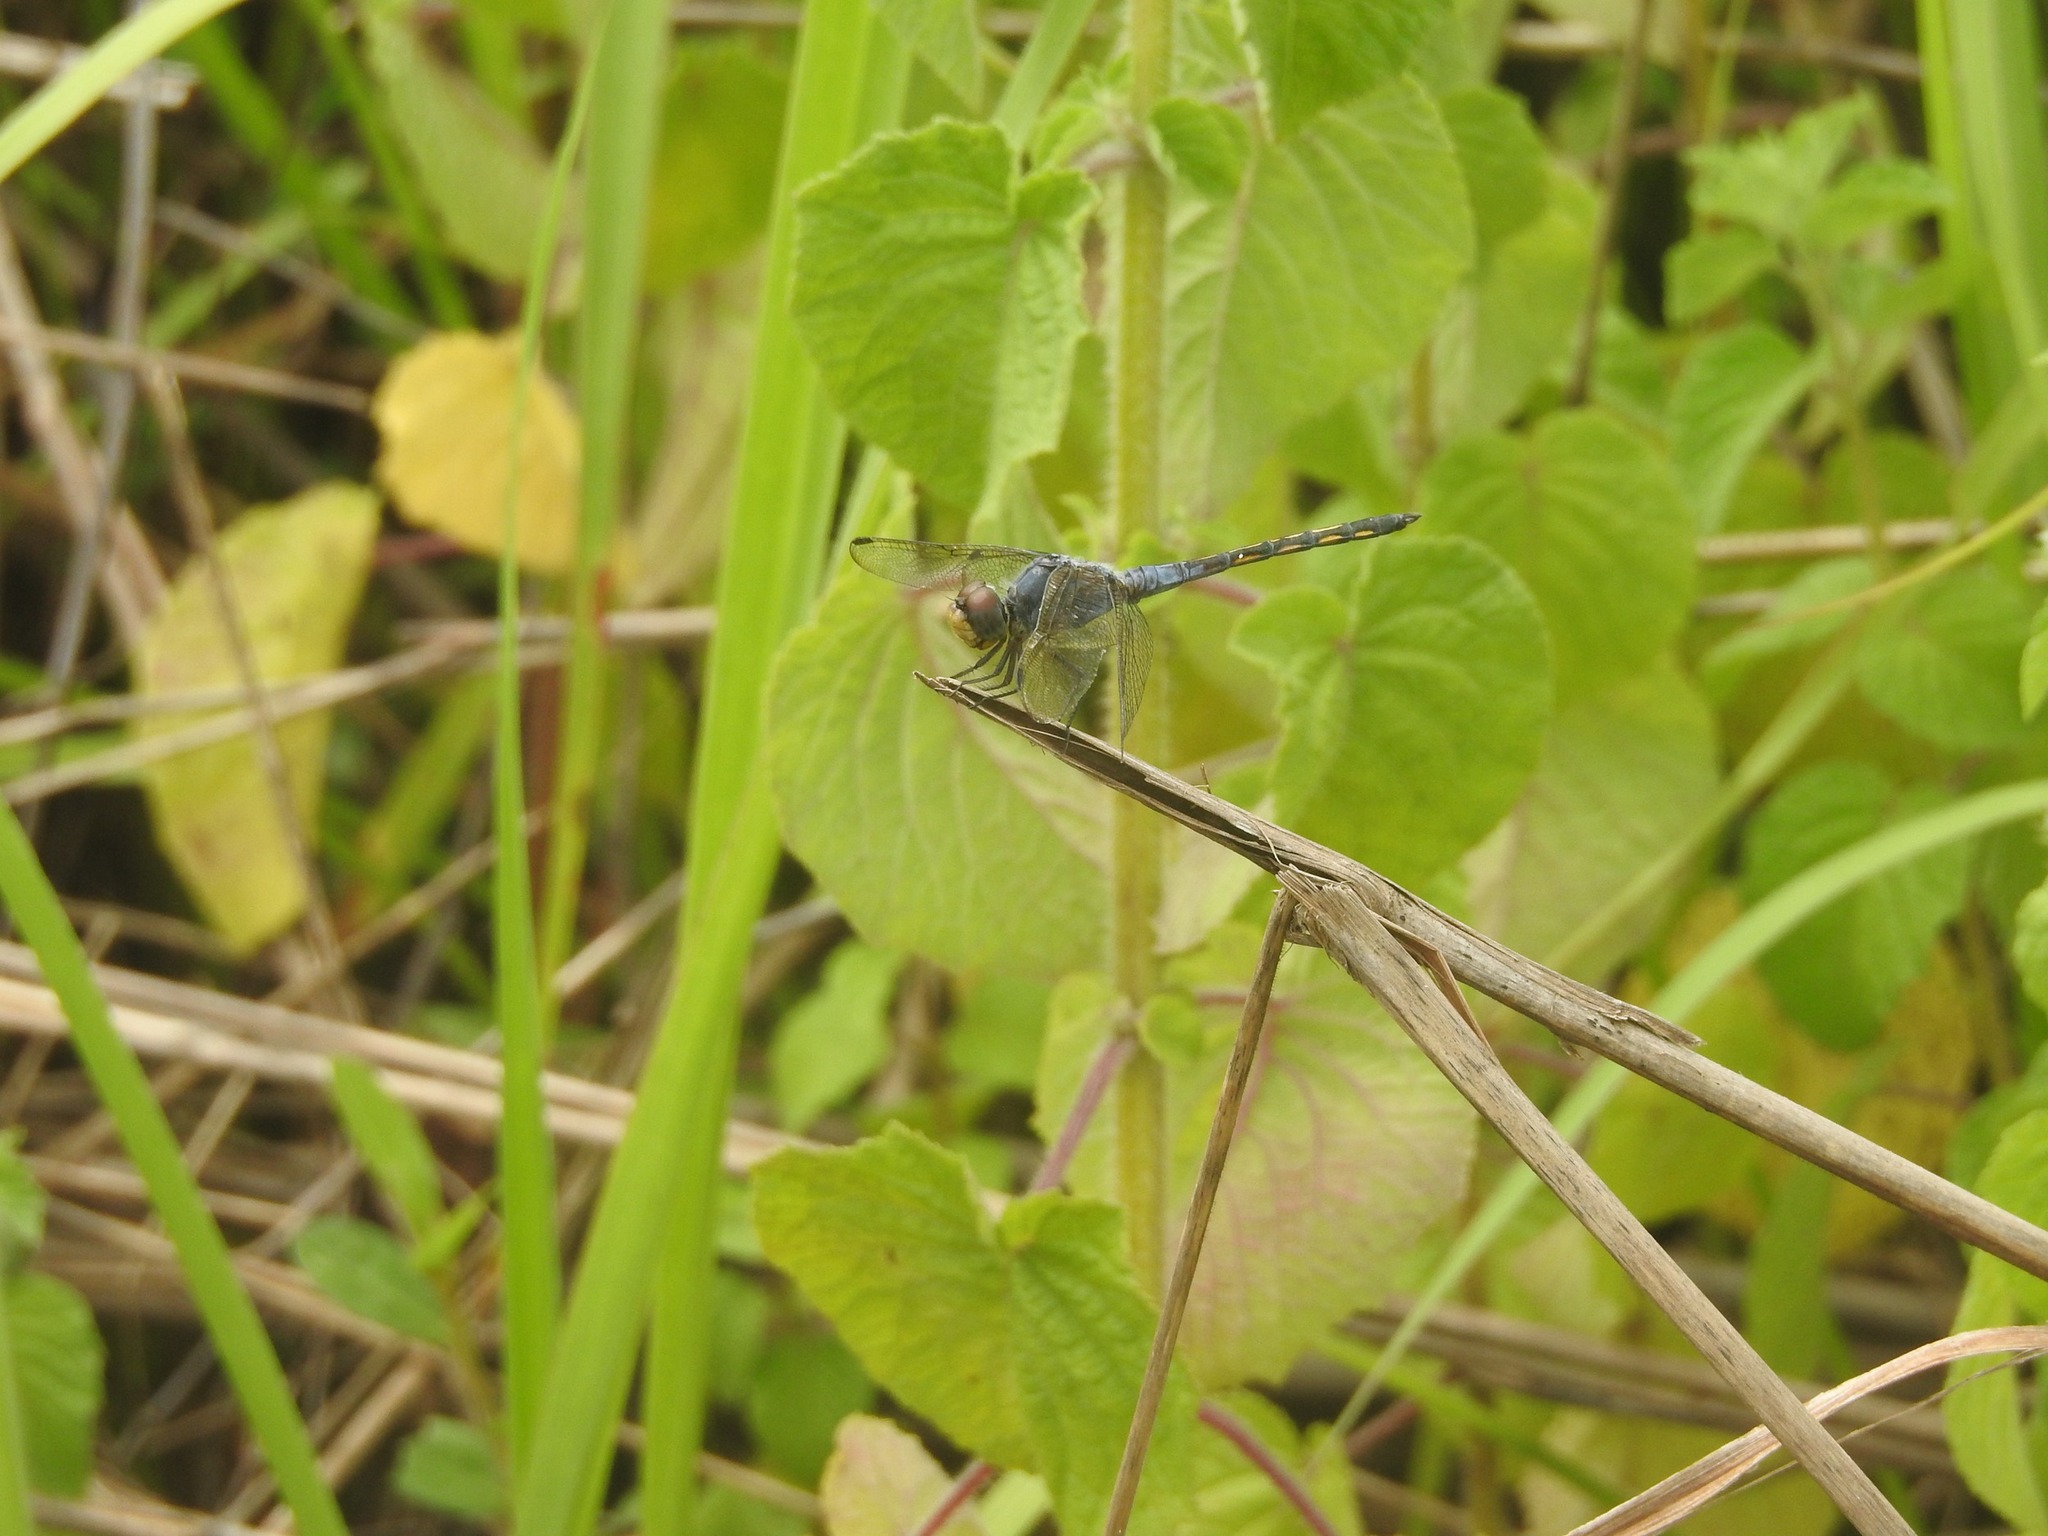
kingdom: Animalia
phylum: Arthropoda
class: Insecta
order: Odonata
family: Libellulidae
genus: Potamarcha
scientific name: Potamarcha congener
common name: Blue chaser
